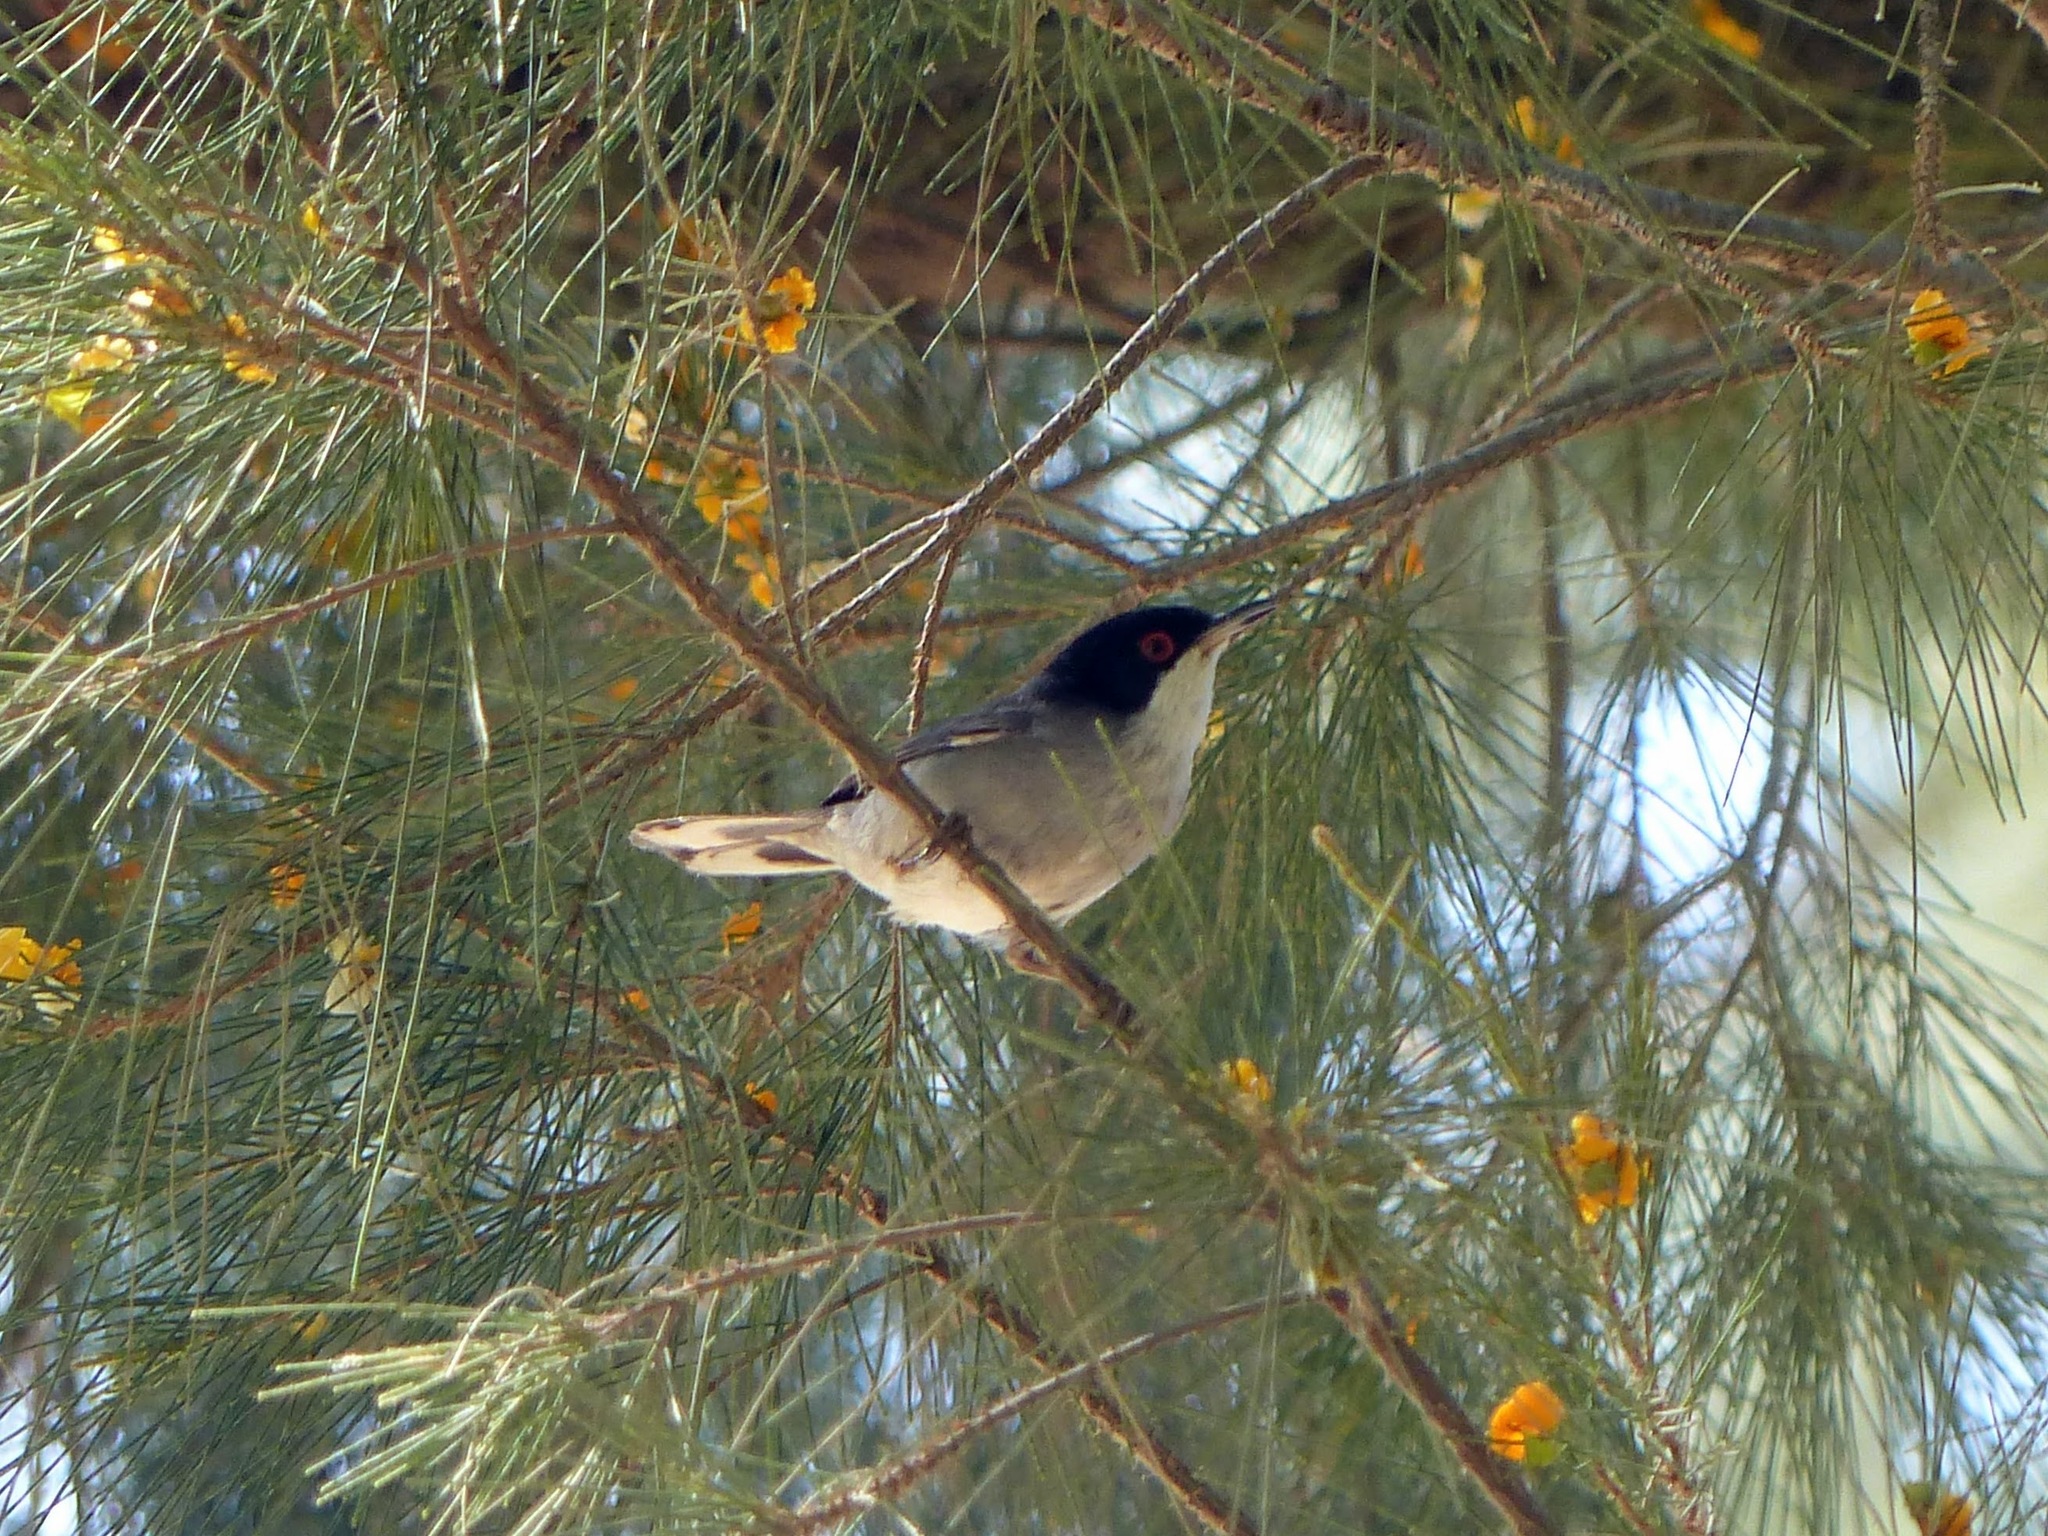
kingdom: Animalia
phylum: Chordata
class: Aves
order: Passeriformes
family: Sylviidae
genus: Curruca
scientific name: Curruca melanocephala
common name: Sardinian warbler
